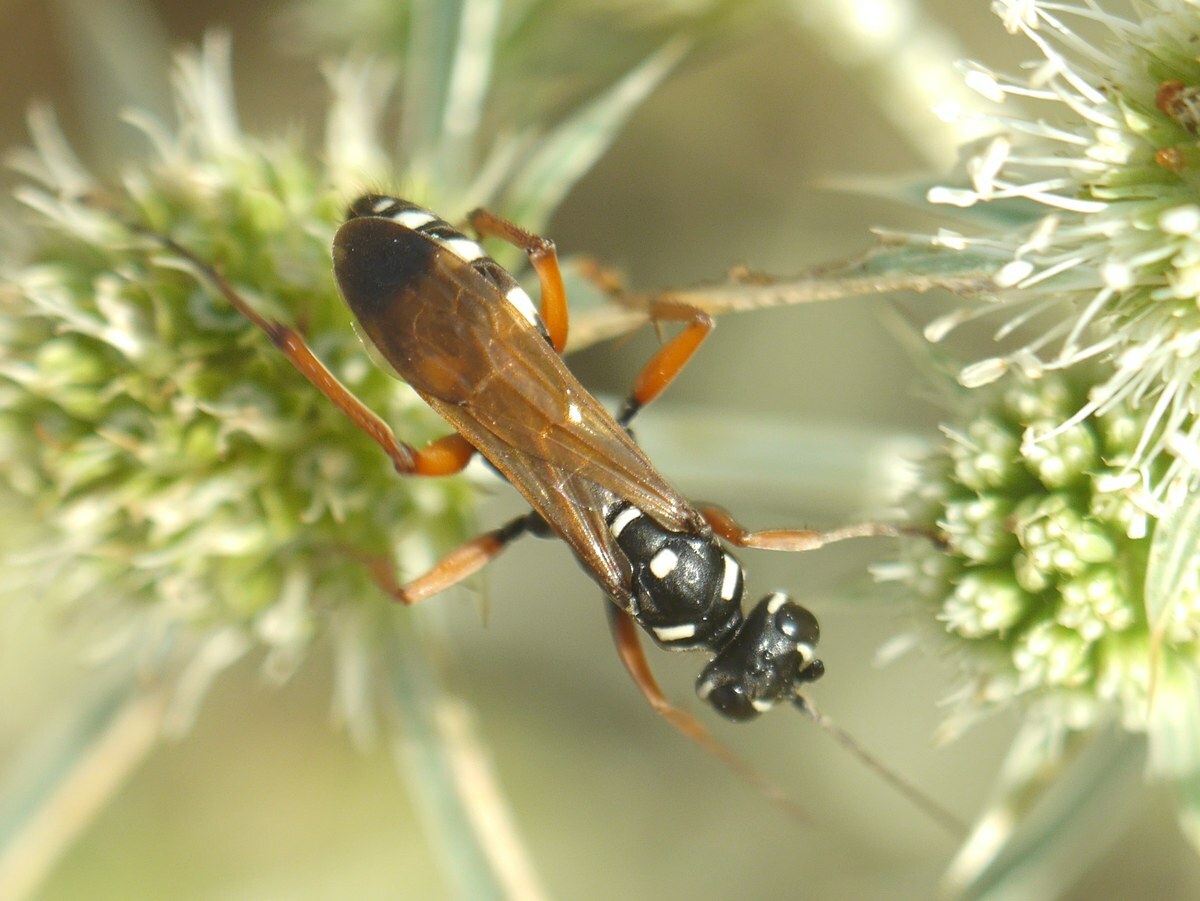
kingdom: Animalia
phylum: Arthropoda
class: Insecta
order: Hymenoptera
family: Pompilidae
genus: Cryptocheilus
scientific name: Cryptocheilus variabilis
